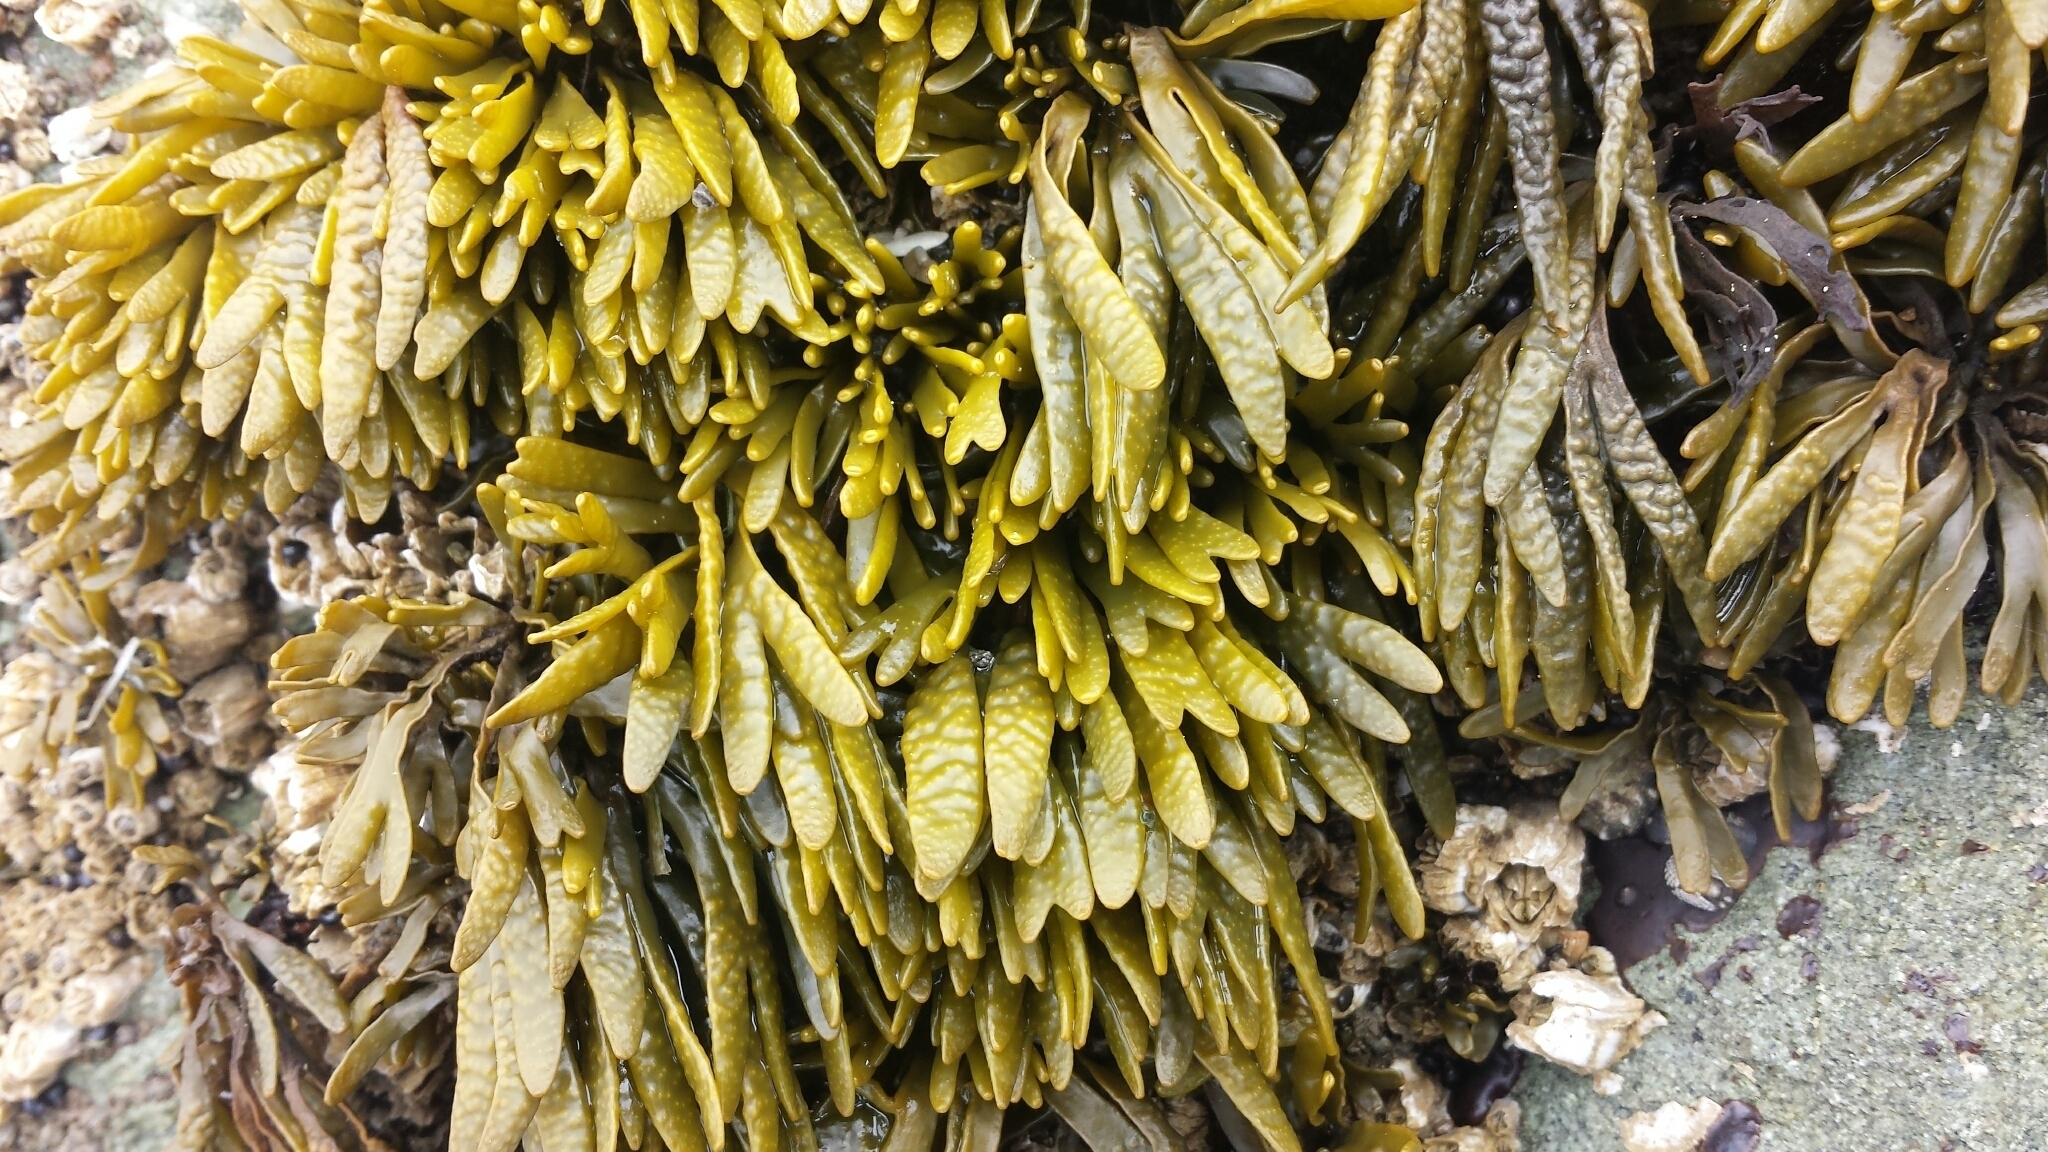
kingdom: Chromista
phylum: Ochrophyta
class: Phaeophyceae
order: Fucales
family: Fucaceae
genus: Pelvetiopsis
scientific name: Pelvetiopsis limitata
